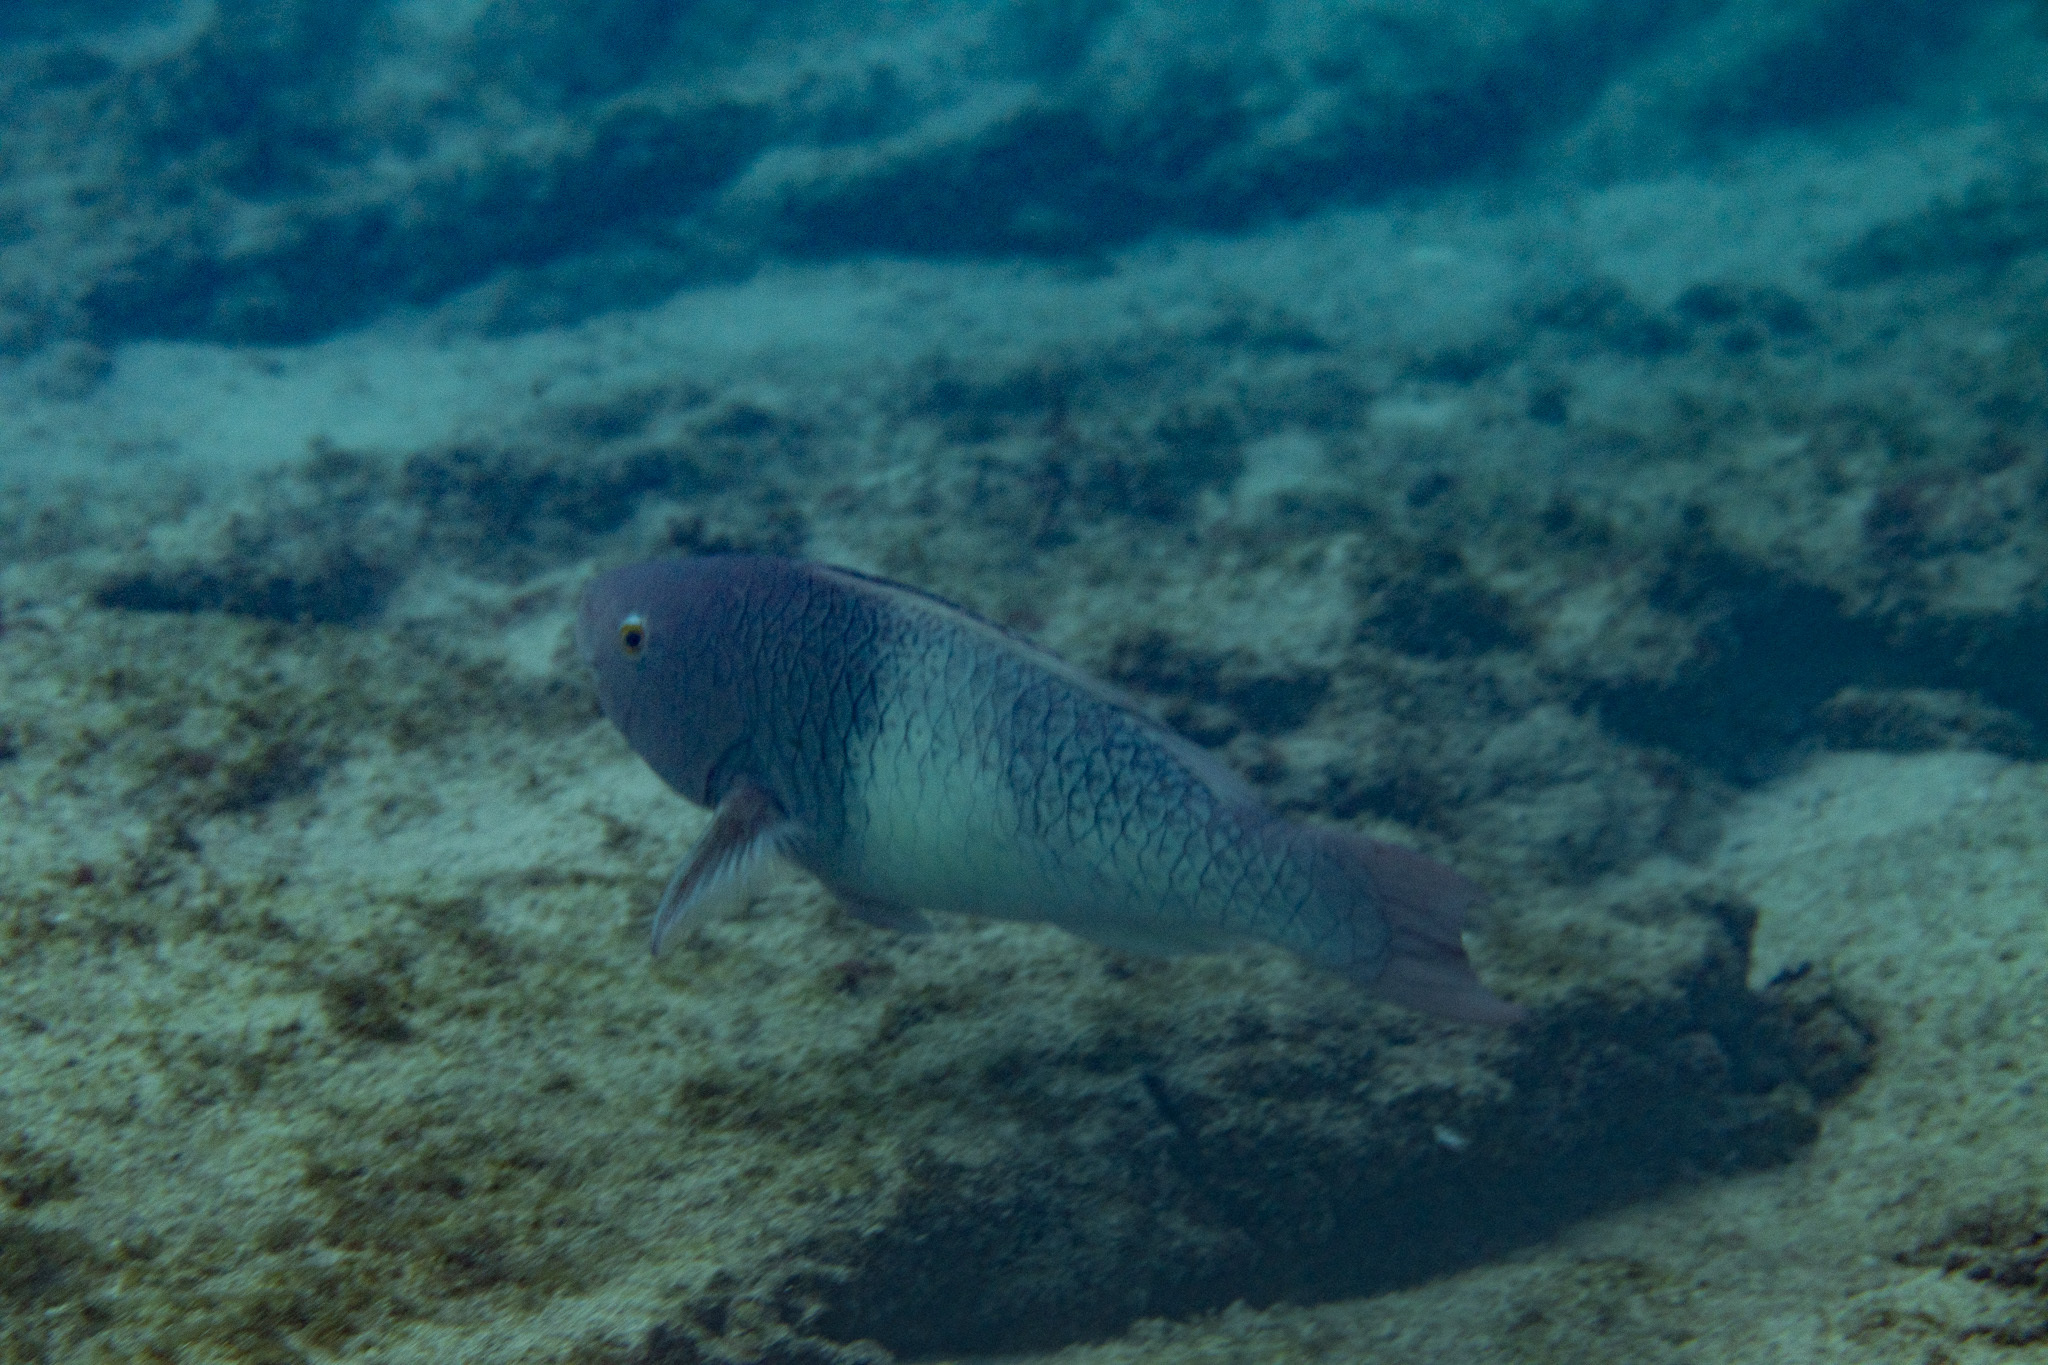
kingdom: Animalia
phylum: Chordata
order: Perciformes
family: Scaridae
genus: Scarus
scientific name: Scarus rubroviolaceus
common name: Ember parrotfish
